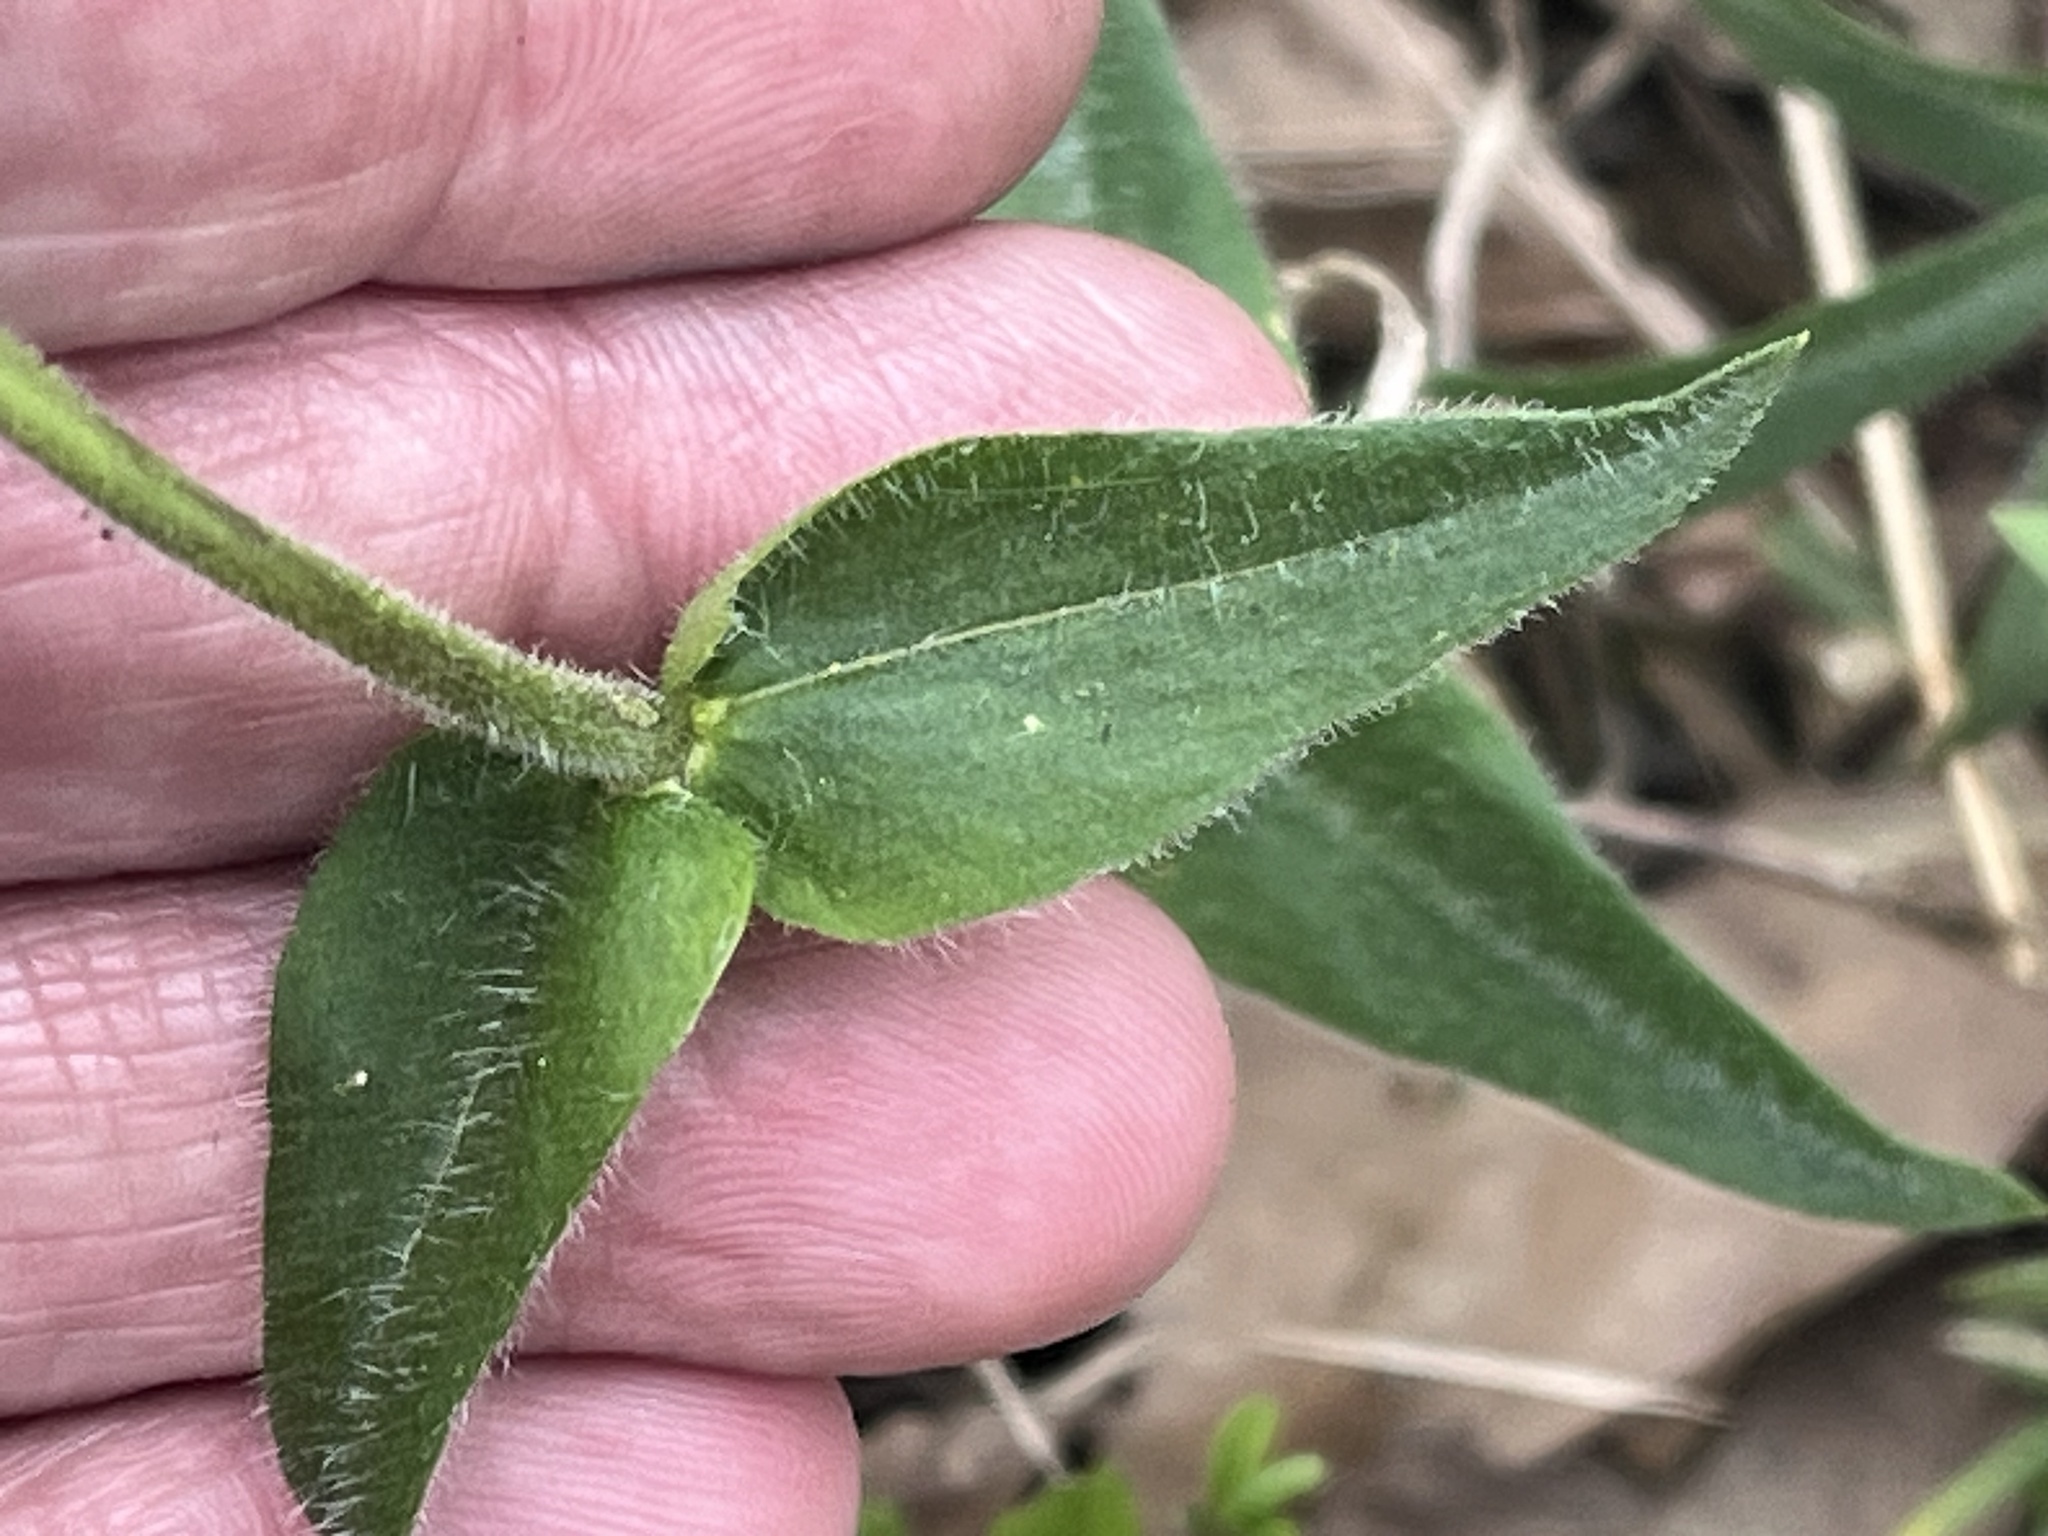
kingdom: Plantae
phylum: Tracheophyta
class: Magnoliopsida
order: Ericales
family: Polemoniaceae
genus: Phlox
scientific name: Phlox divaricata
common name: Blue phlox
